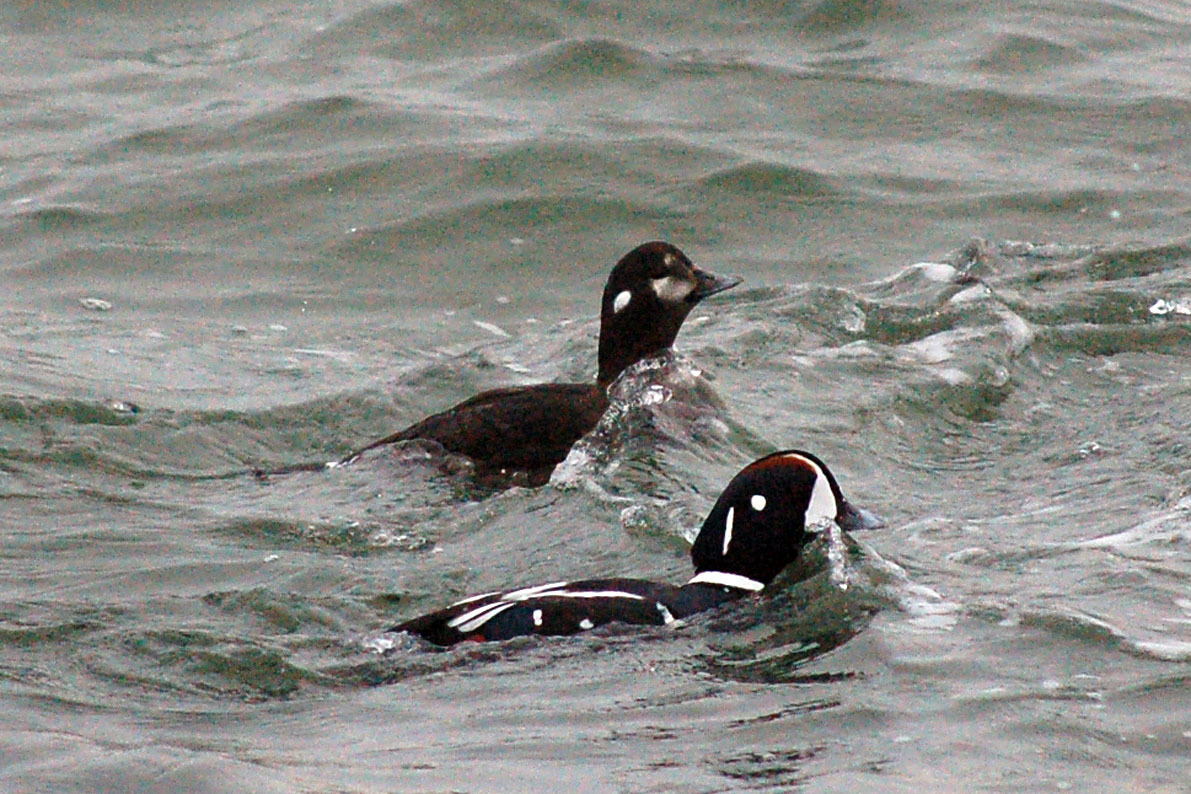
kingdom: Animalia
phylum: Chordata
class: Aves
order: Anseriformes
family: Anatidae
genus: Histrionicus
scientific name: Histrionicus histrionicus
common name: Harlequin duck
